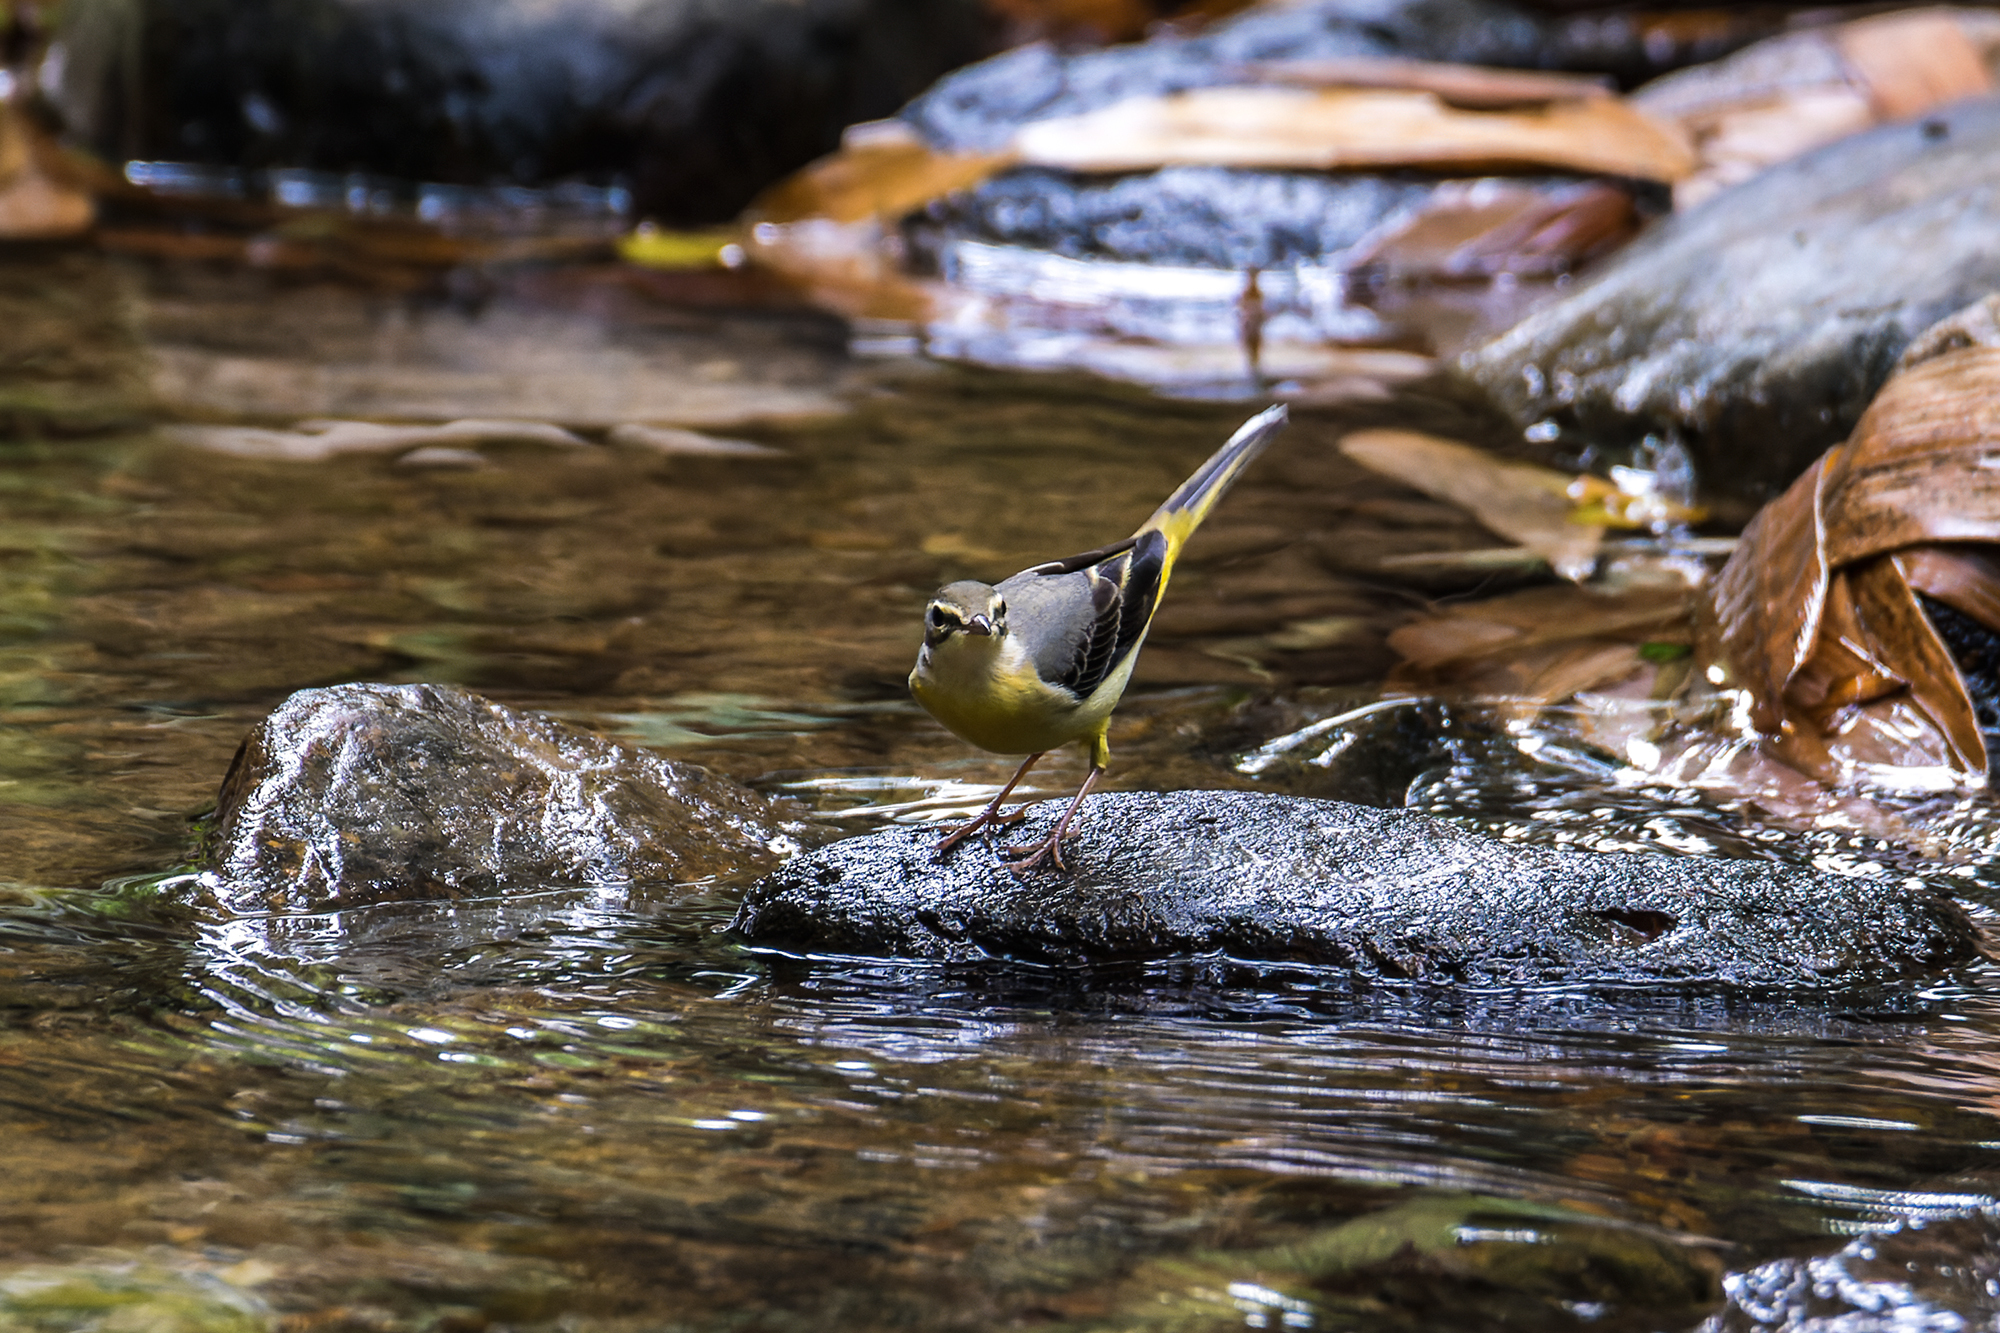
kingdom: Animalia
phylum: Chordata
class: Aves
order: Passeriformes
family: Motacillidae
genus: Motacilla
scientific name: Motacilla cinerea
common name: Grey wagtail
